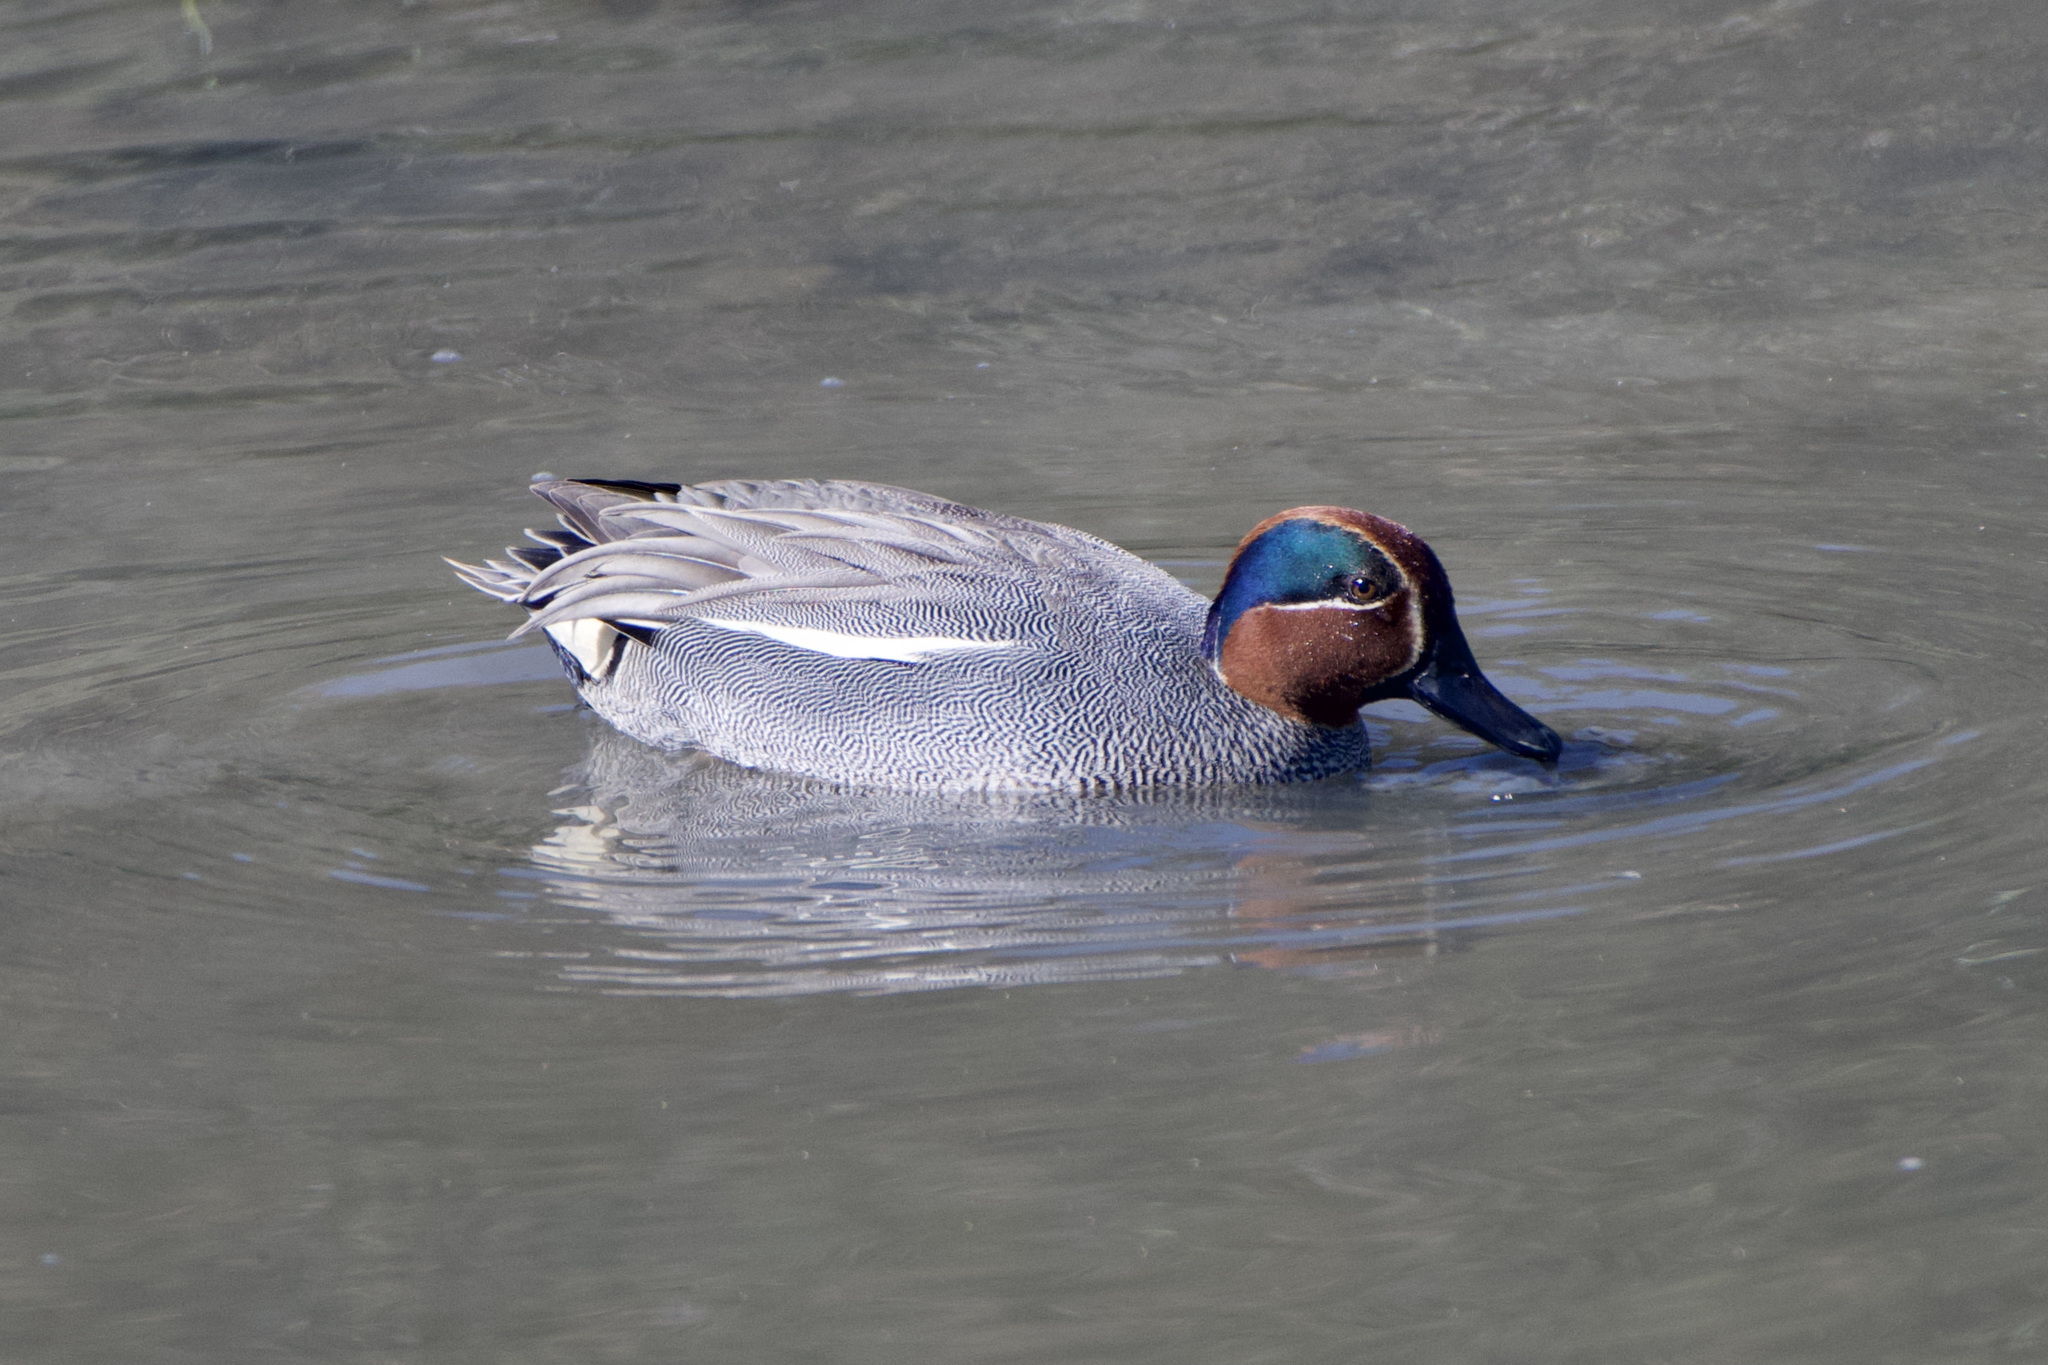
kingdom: Animalia
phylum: Chordata
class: Aves
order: Anseriformes
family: Anatidae
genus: Anas
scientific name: Anas crecca
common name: Eurasian teal
